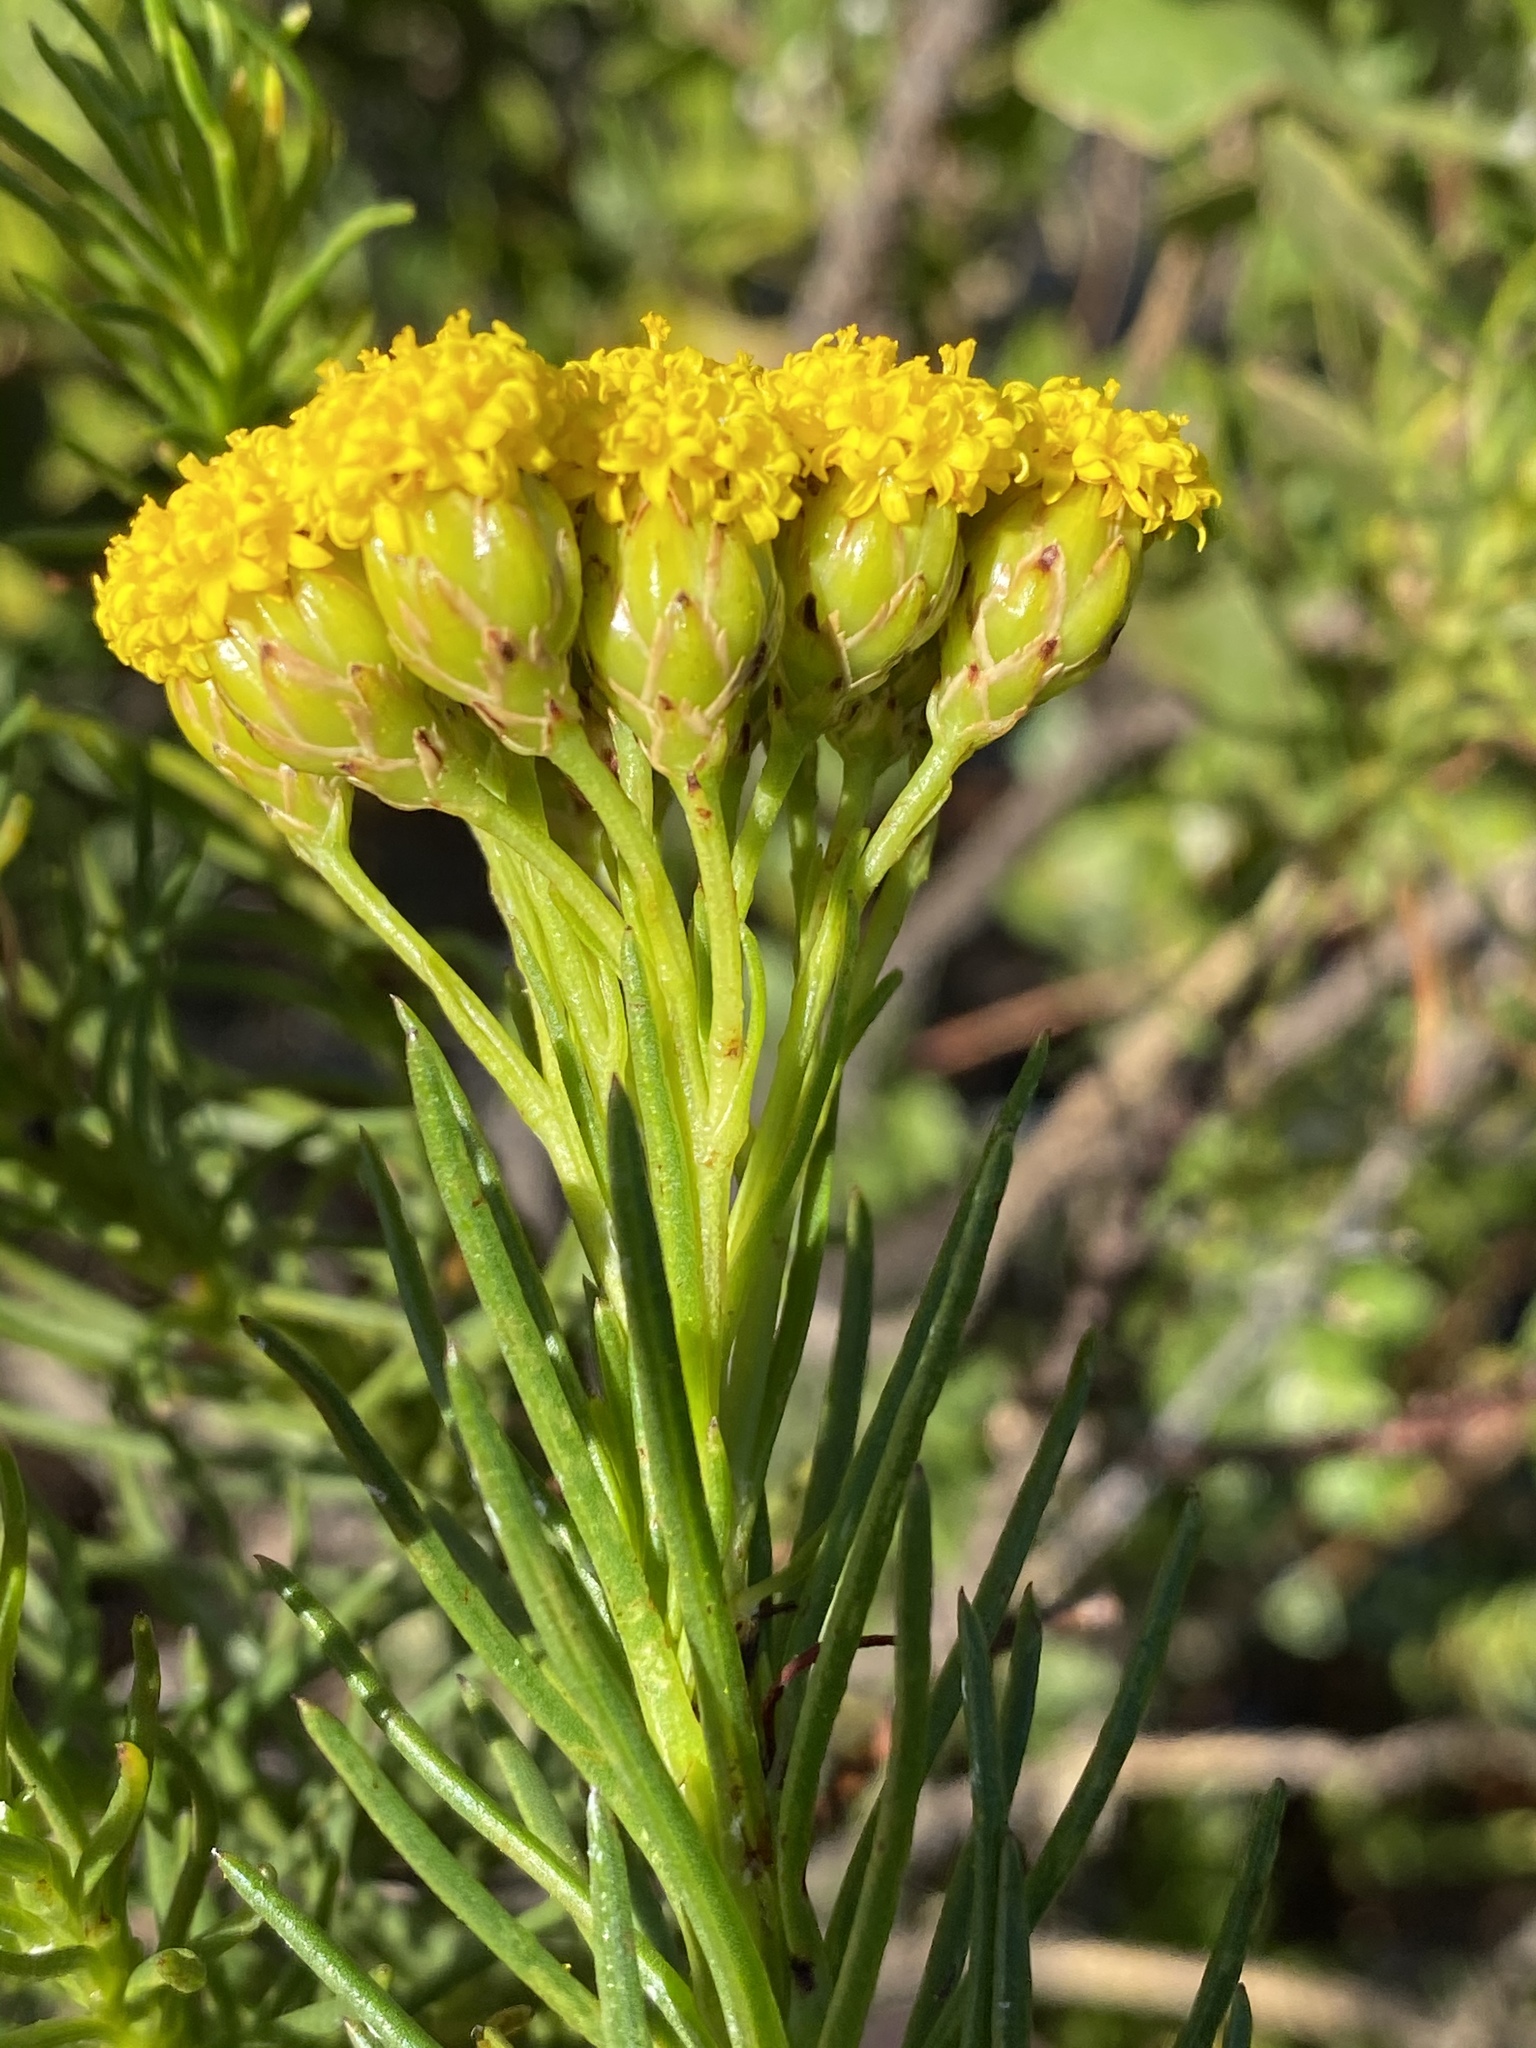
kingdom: Plantae
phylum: Tracheophyta
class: Magnoliopsida
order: Asterales
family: Asteraceae
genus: Athanasia
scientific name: Athanasia linifolia
